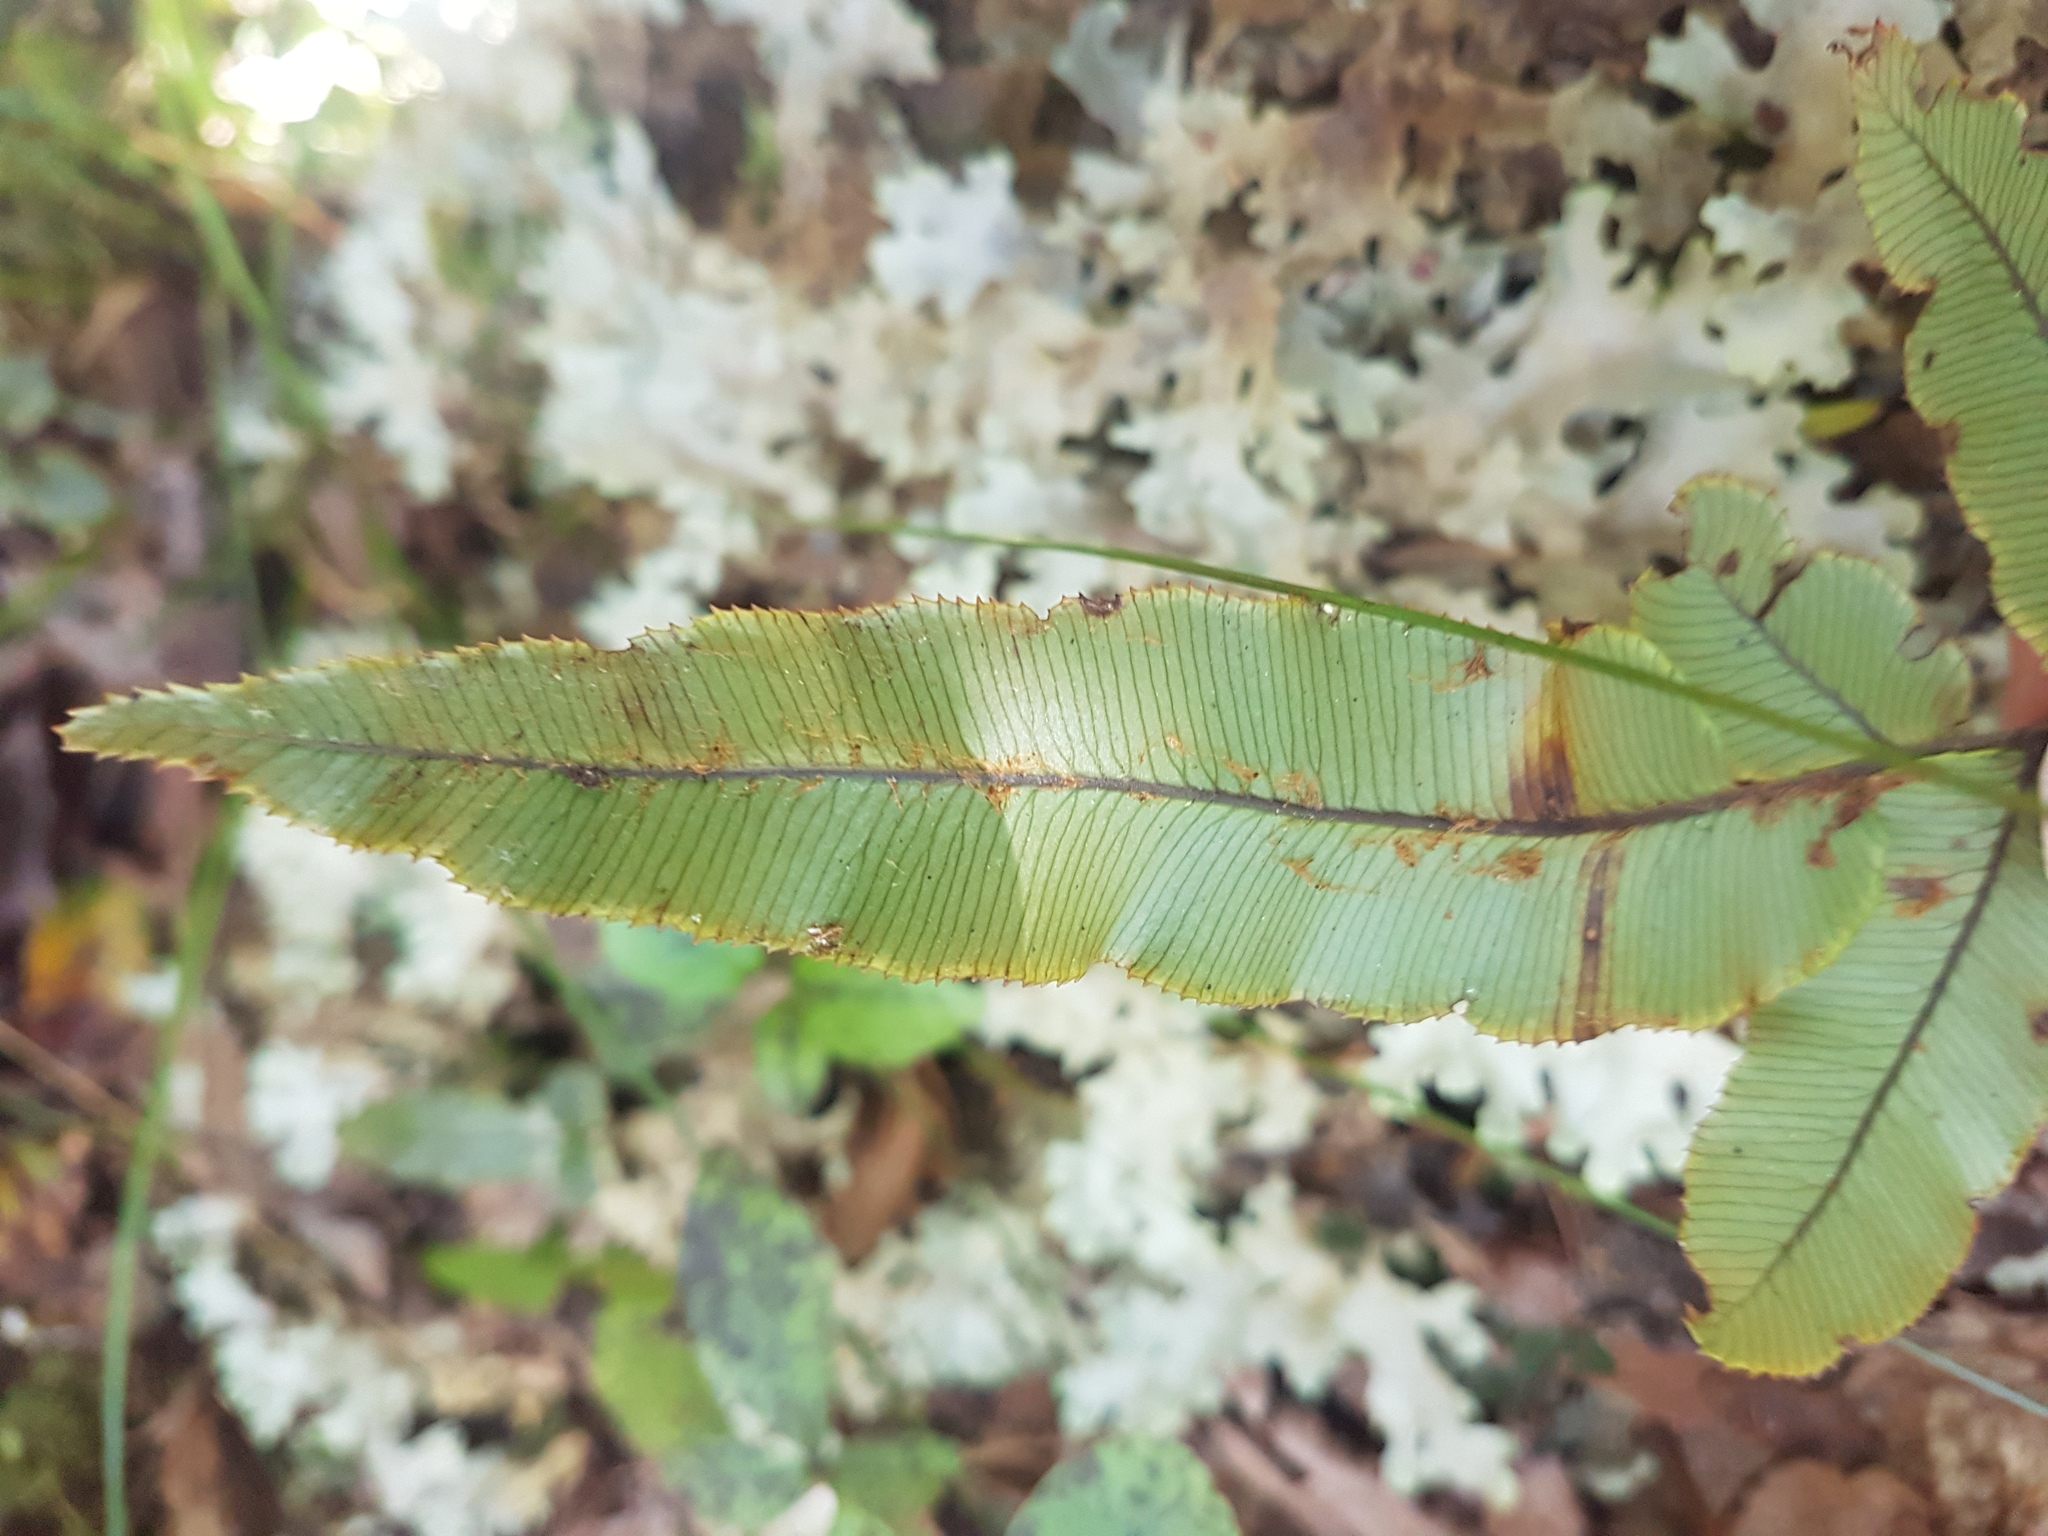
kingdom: Plantae
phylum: Tracheophyta
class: Polypodiopsida
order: Polypodiales
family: Blechnaceae
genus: Parablechnum
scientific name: Parablechnum procerum
